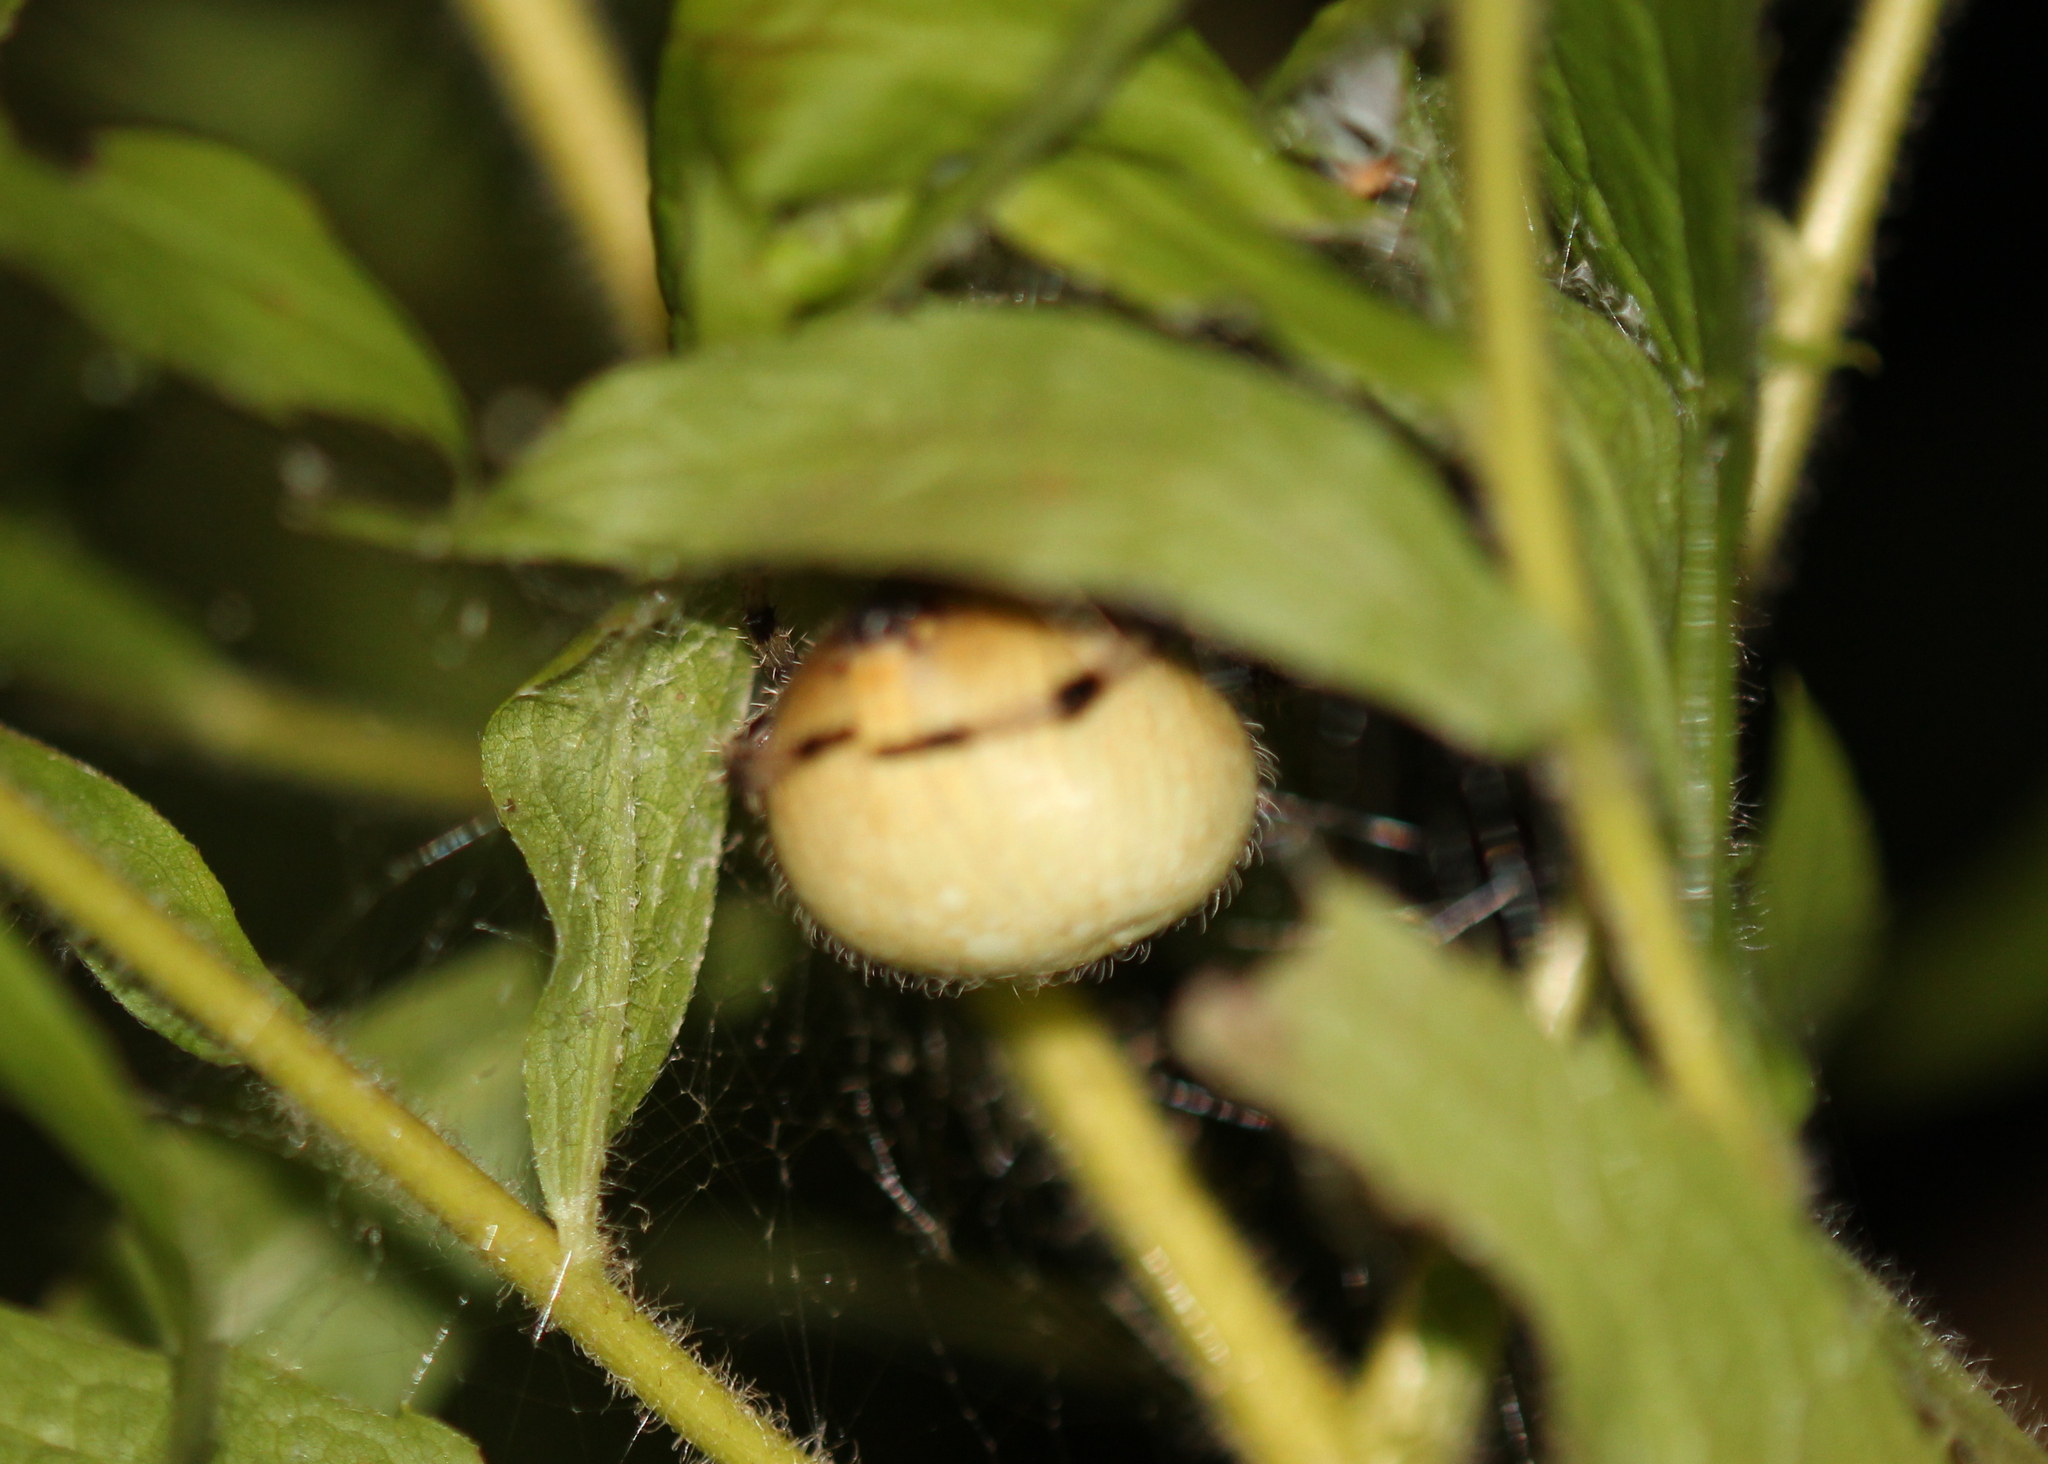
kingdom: Animalia
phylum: Arthropoda
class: Arachnida
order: Araneae
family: Araneidae
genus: Araneus
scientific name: Araneus trifolium
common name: Shamrock orbweaver
